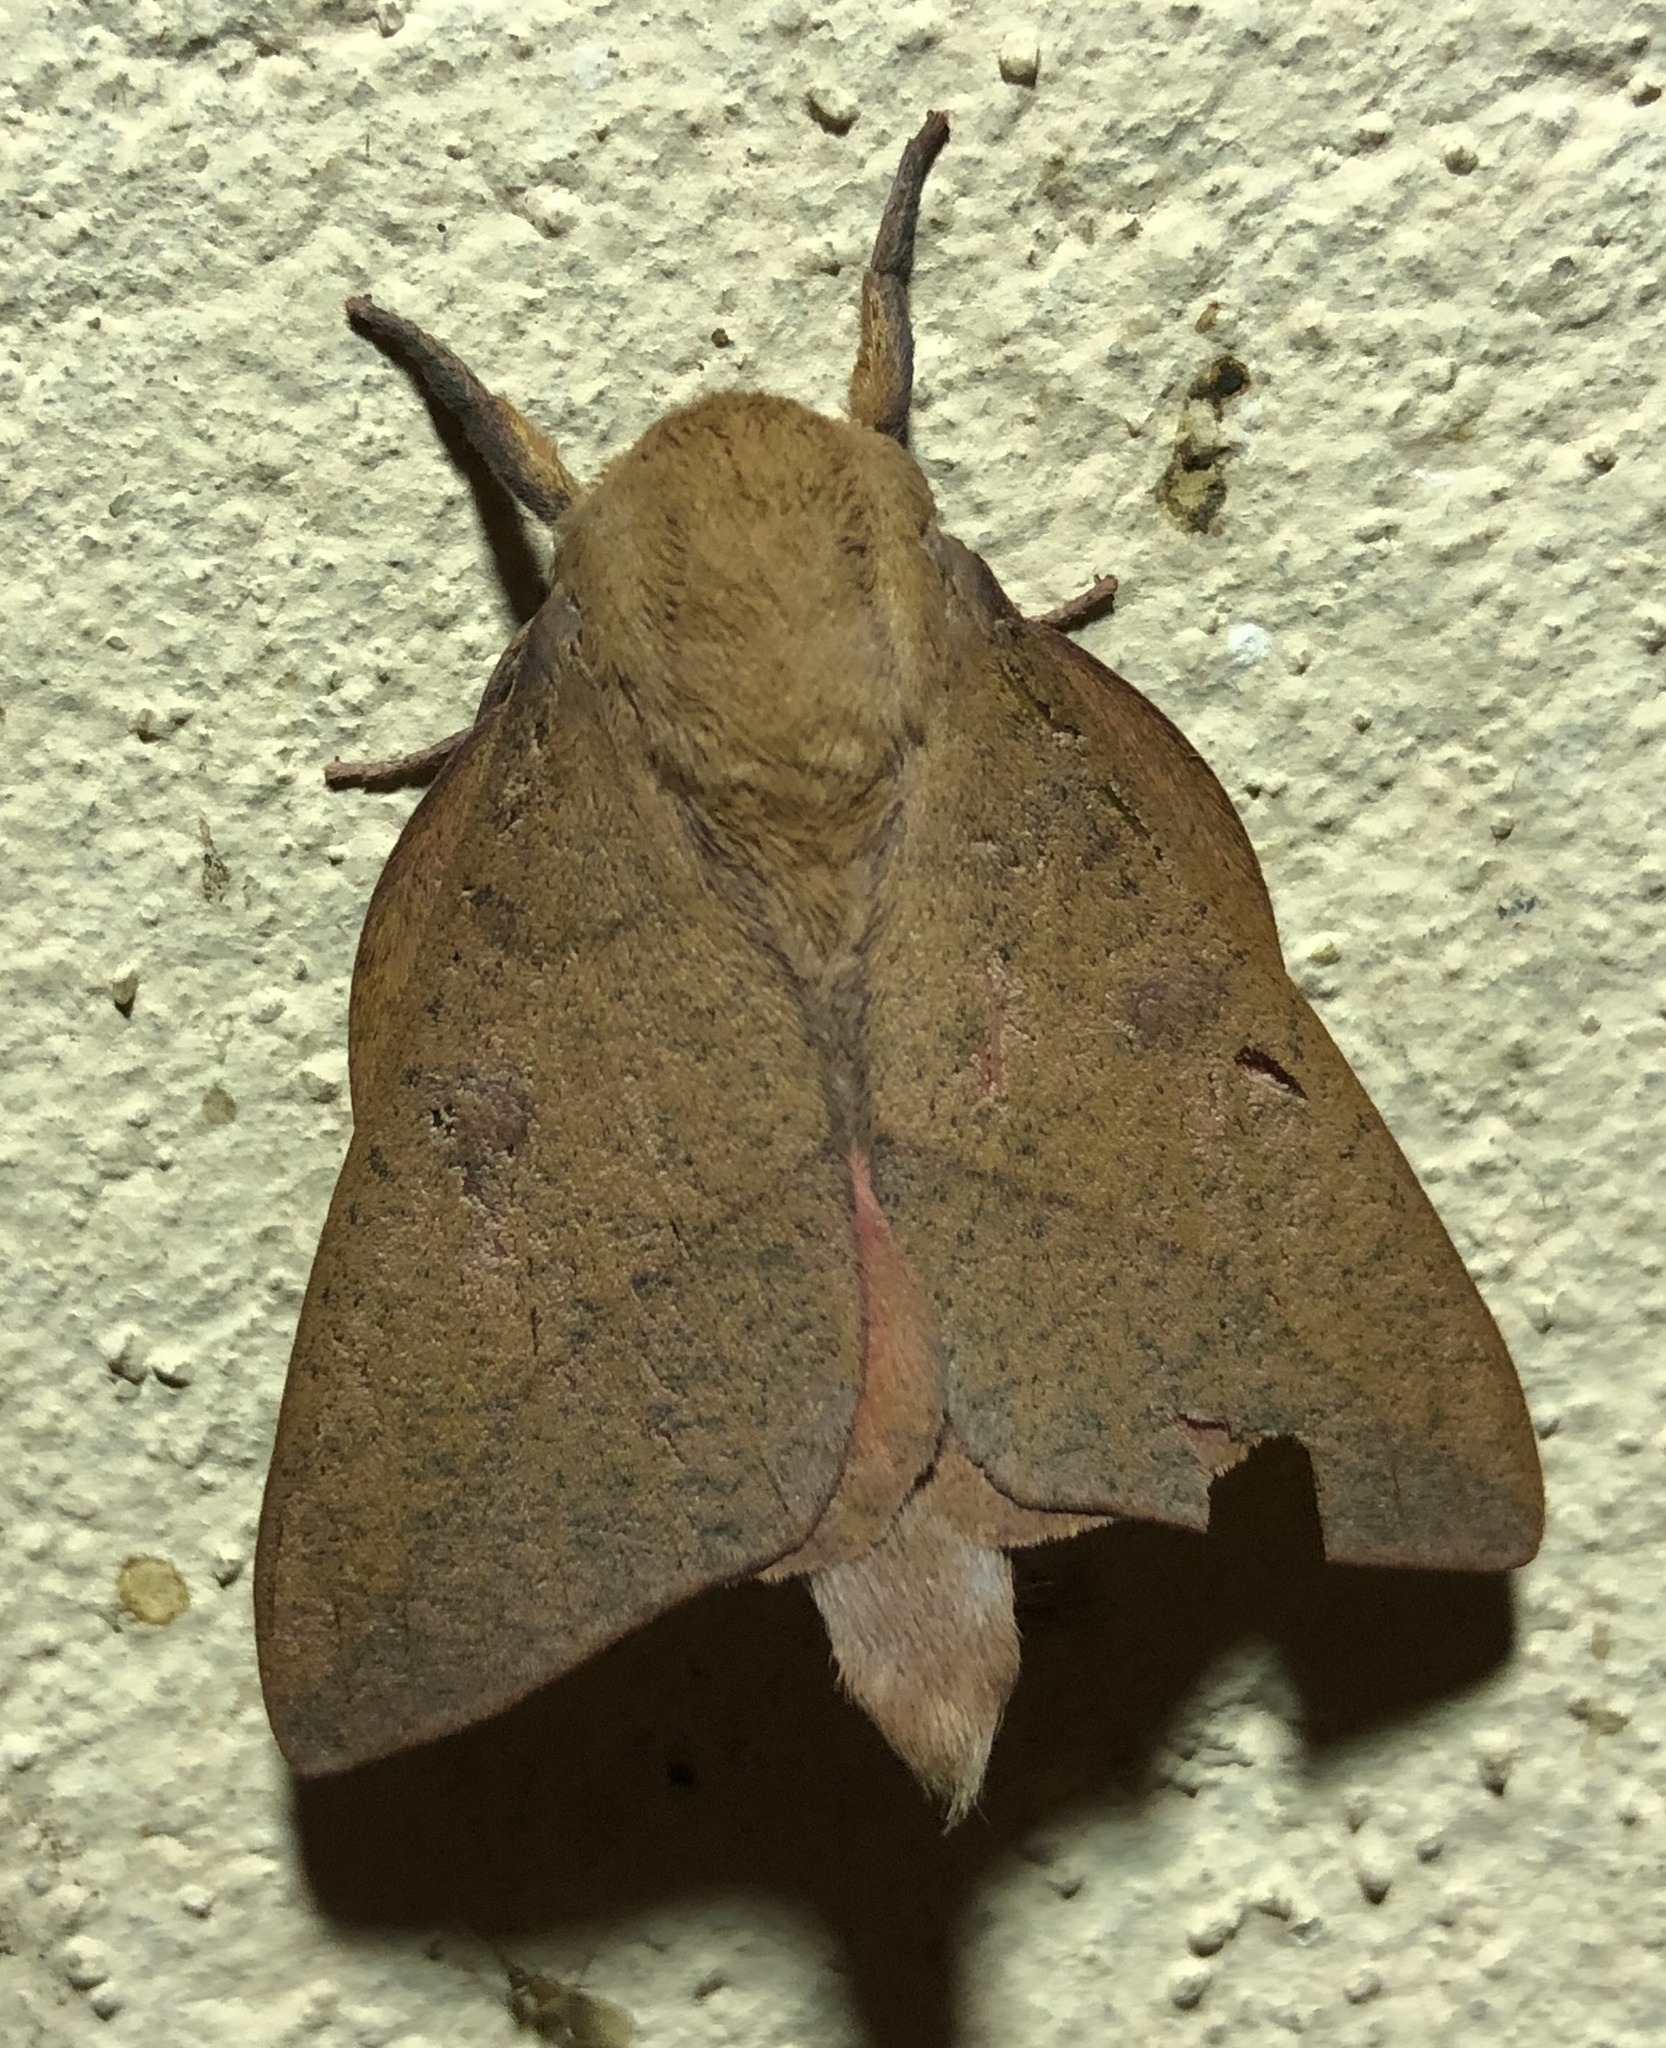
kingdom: Animalia
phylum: Arthropoda
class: Insecta
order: Lepidoptera
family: Saturniidae
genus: Adeloneivaia
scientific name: Adeloneivaia subangulata
